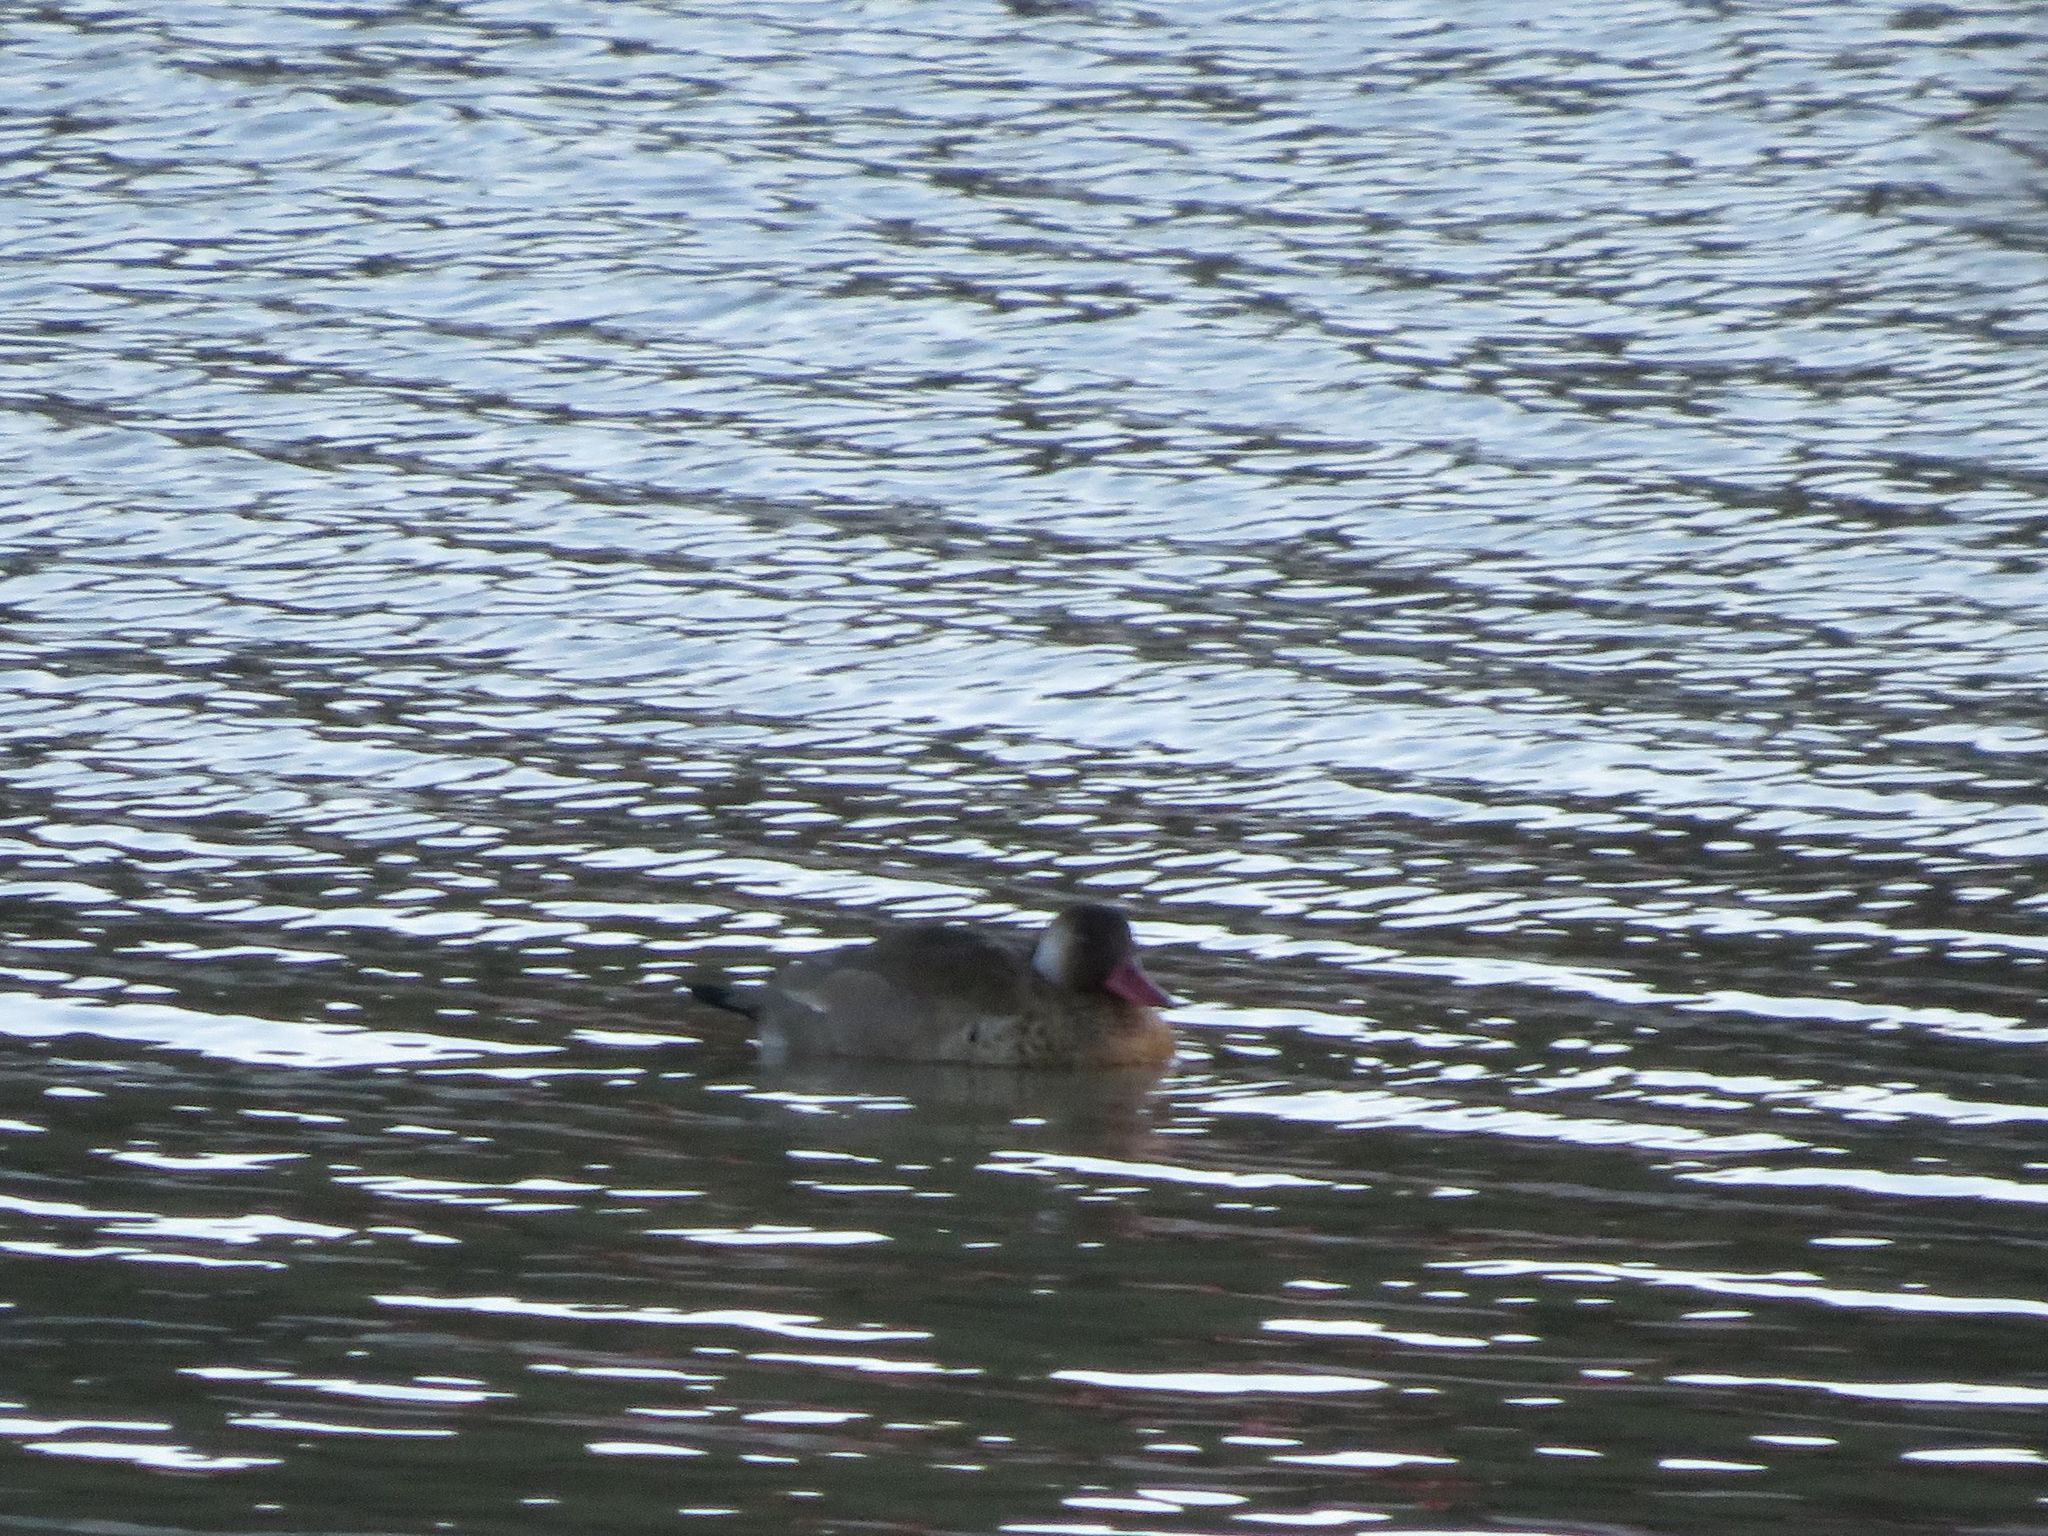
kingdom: Animalia
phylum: Chordata
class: Aves
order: Anseriformes
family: Anatidae
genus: Amazonetta
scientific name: Amazonetta brasiliensis
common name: Brazilian teal
